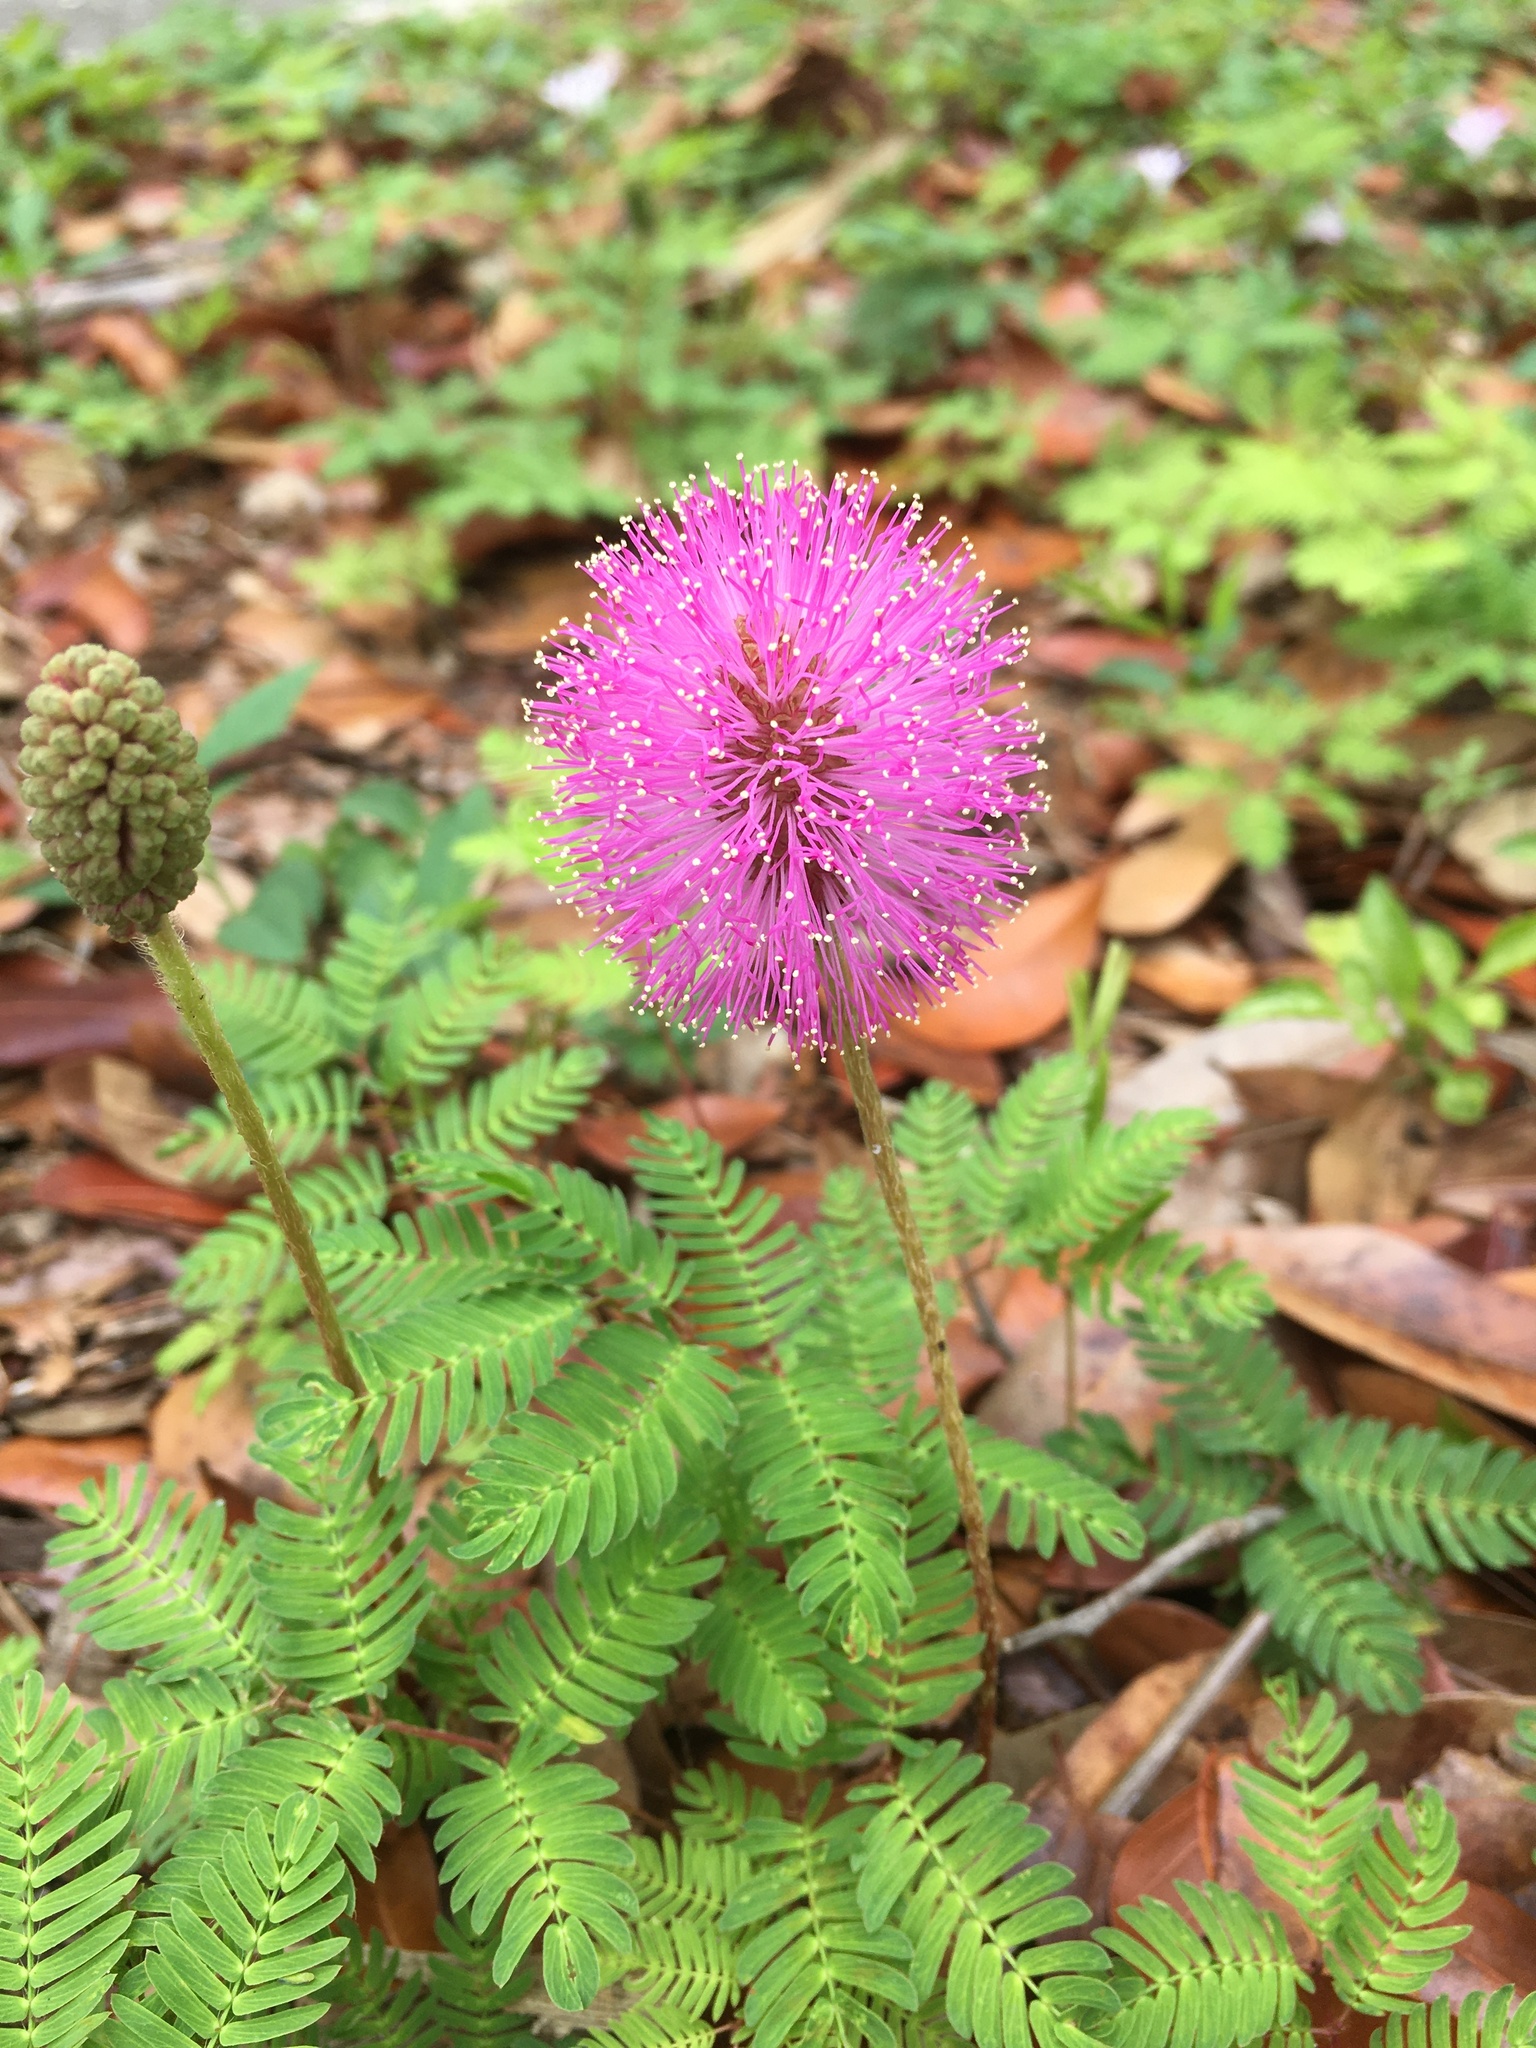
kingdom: Plantae
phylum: Tracheophyta
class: Magnoliopsida
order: Fabales
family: Fabaceae
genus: Mimosa
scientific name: Mimosa strigillosa
